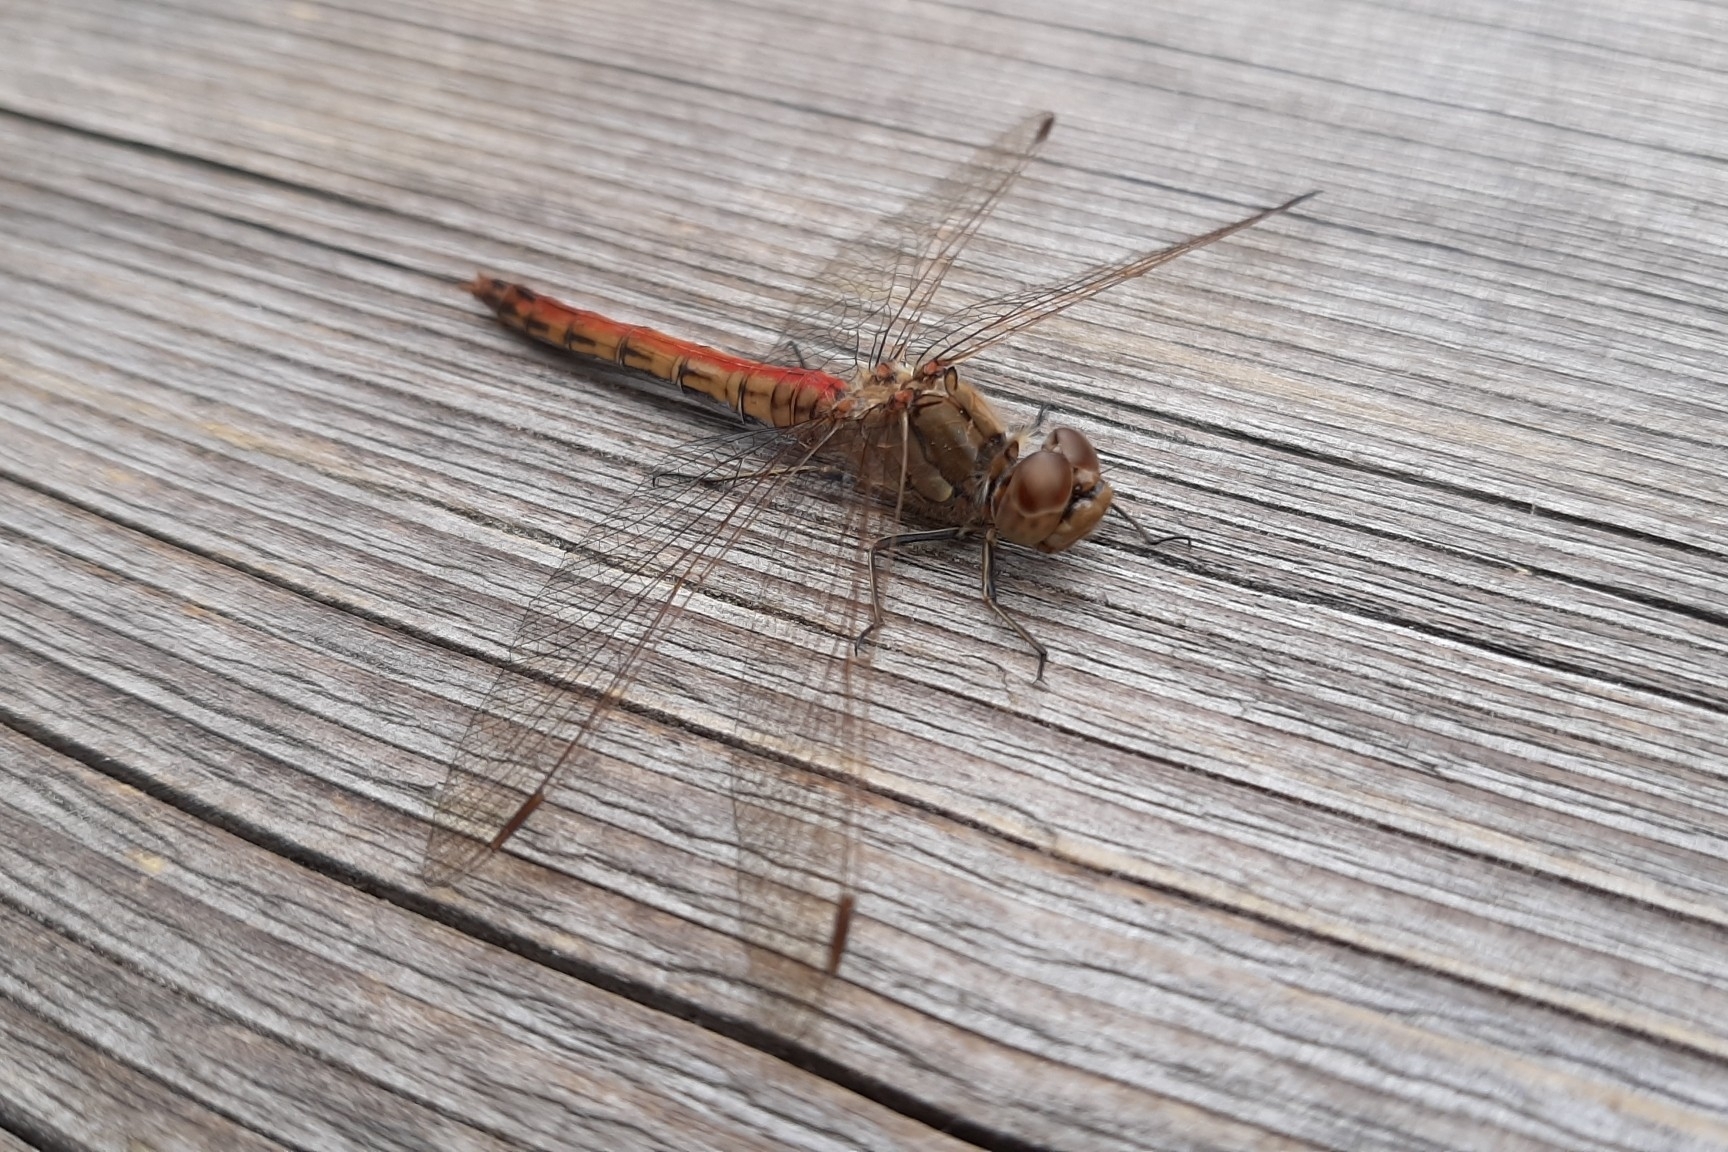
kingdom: Animalia
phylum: Arthropoda
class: Insecta
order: Odonata
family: Libellulidae
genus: Sympetrum
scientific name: Sympetrum vulgatum
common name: Vagrant darter
